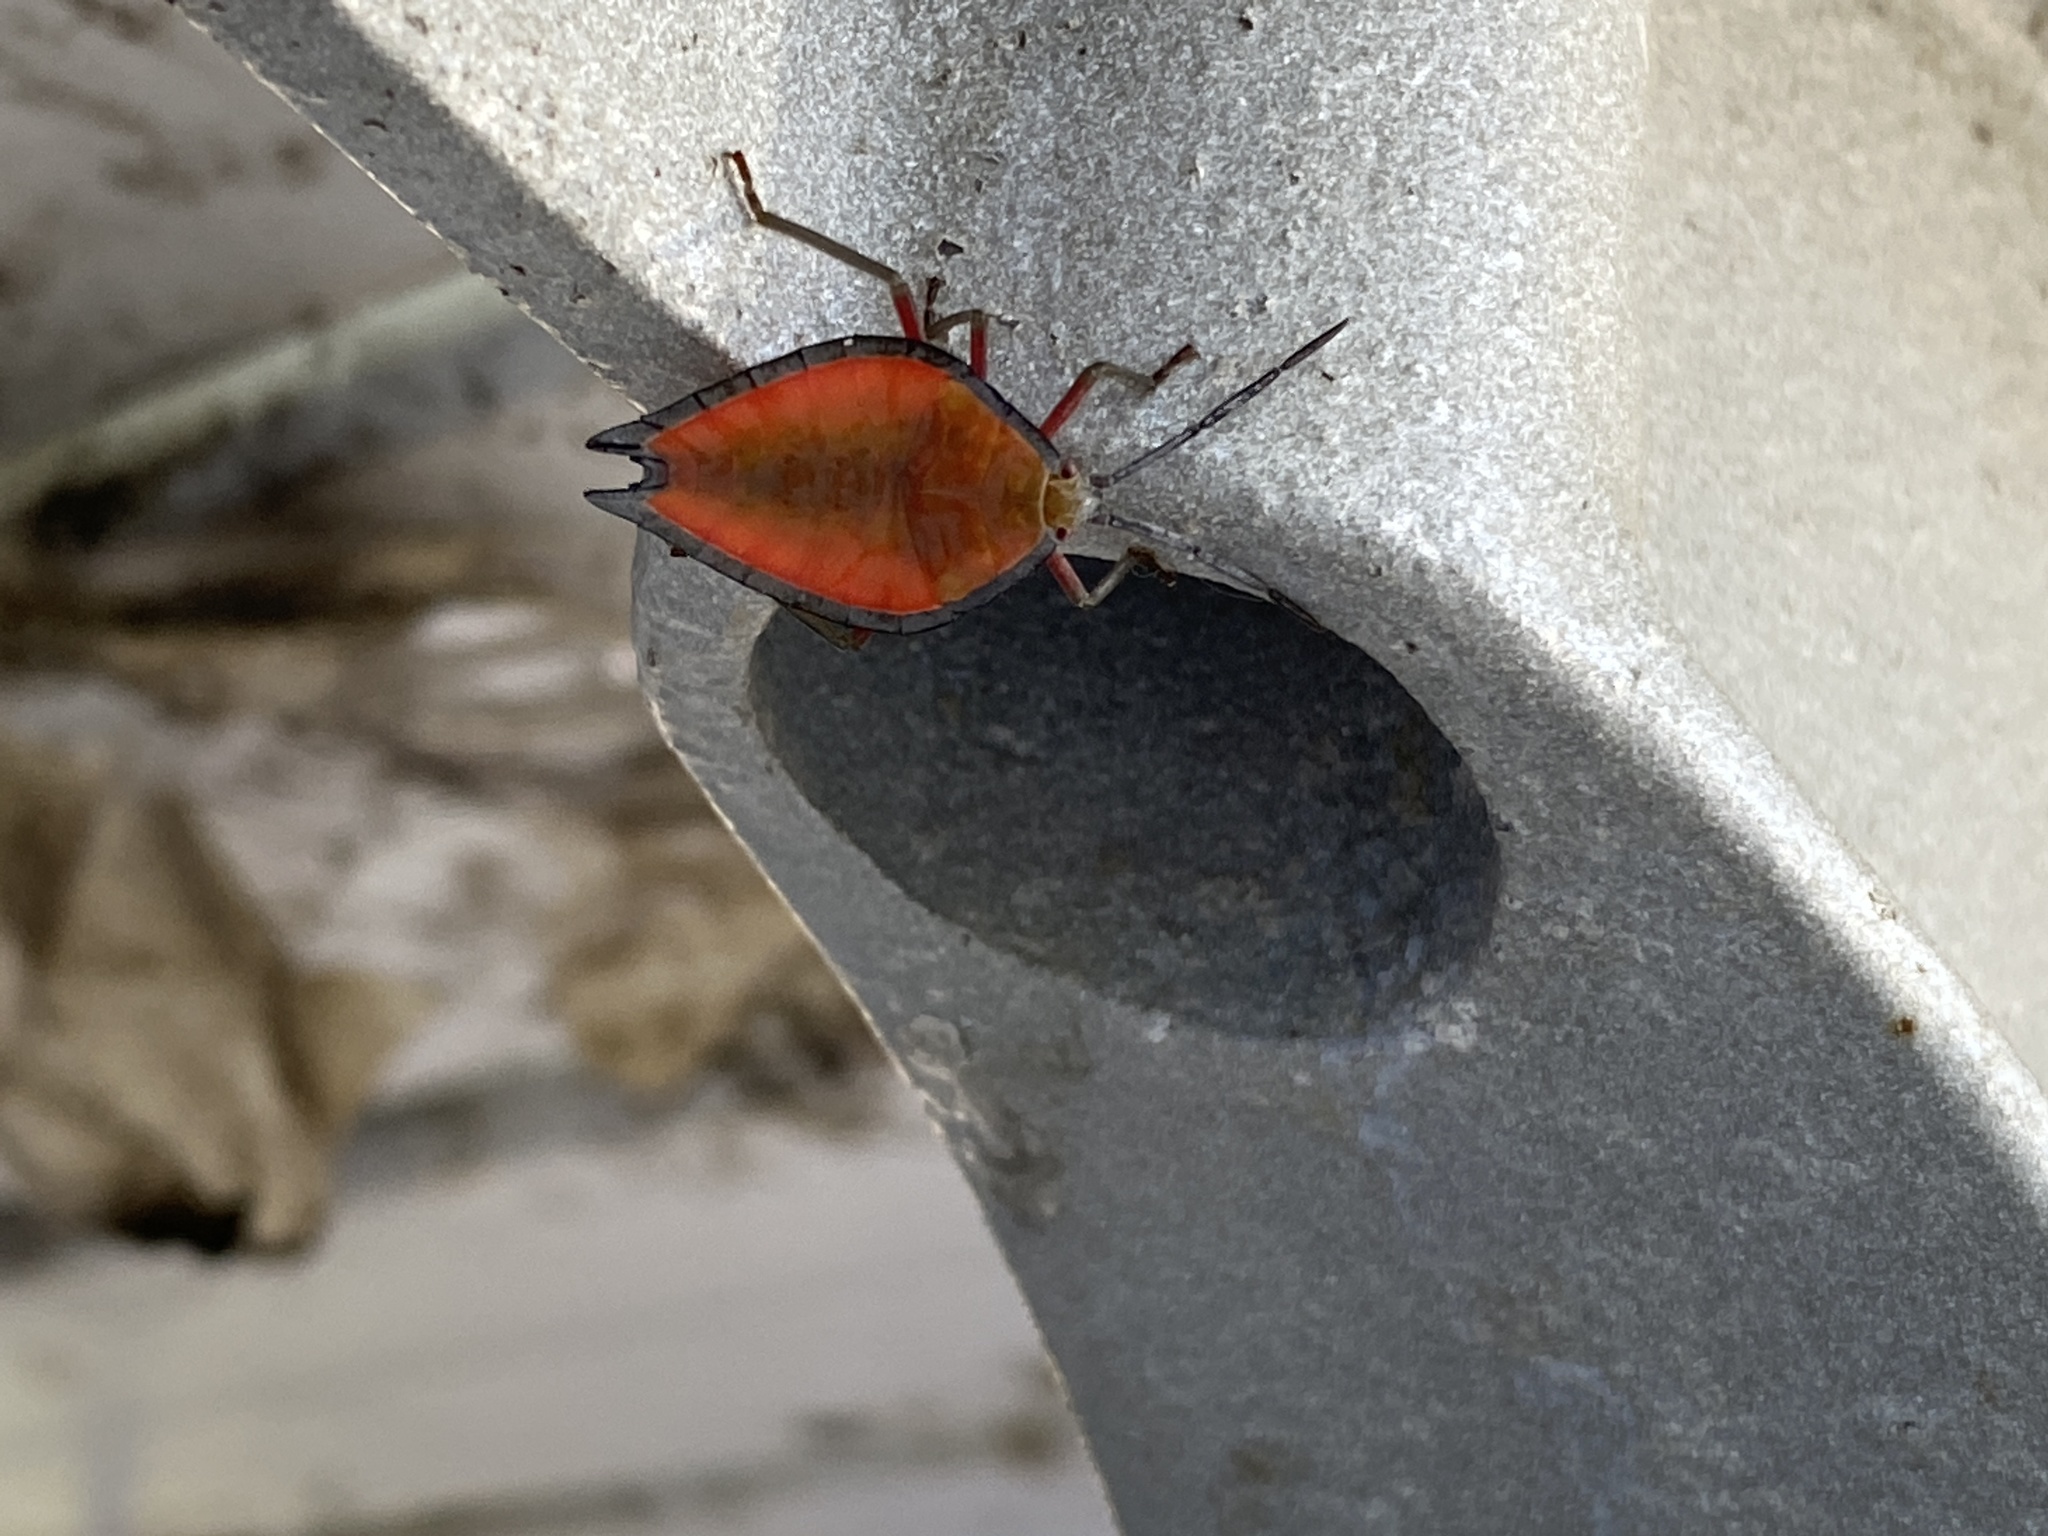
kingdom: Animalia
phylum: Arthropoda
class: Insecta
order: Hemiptera
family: Tessaratomidae
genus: Lyramorpha
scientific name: Lyramorpha rosea
